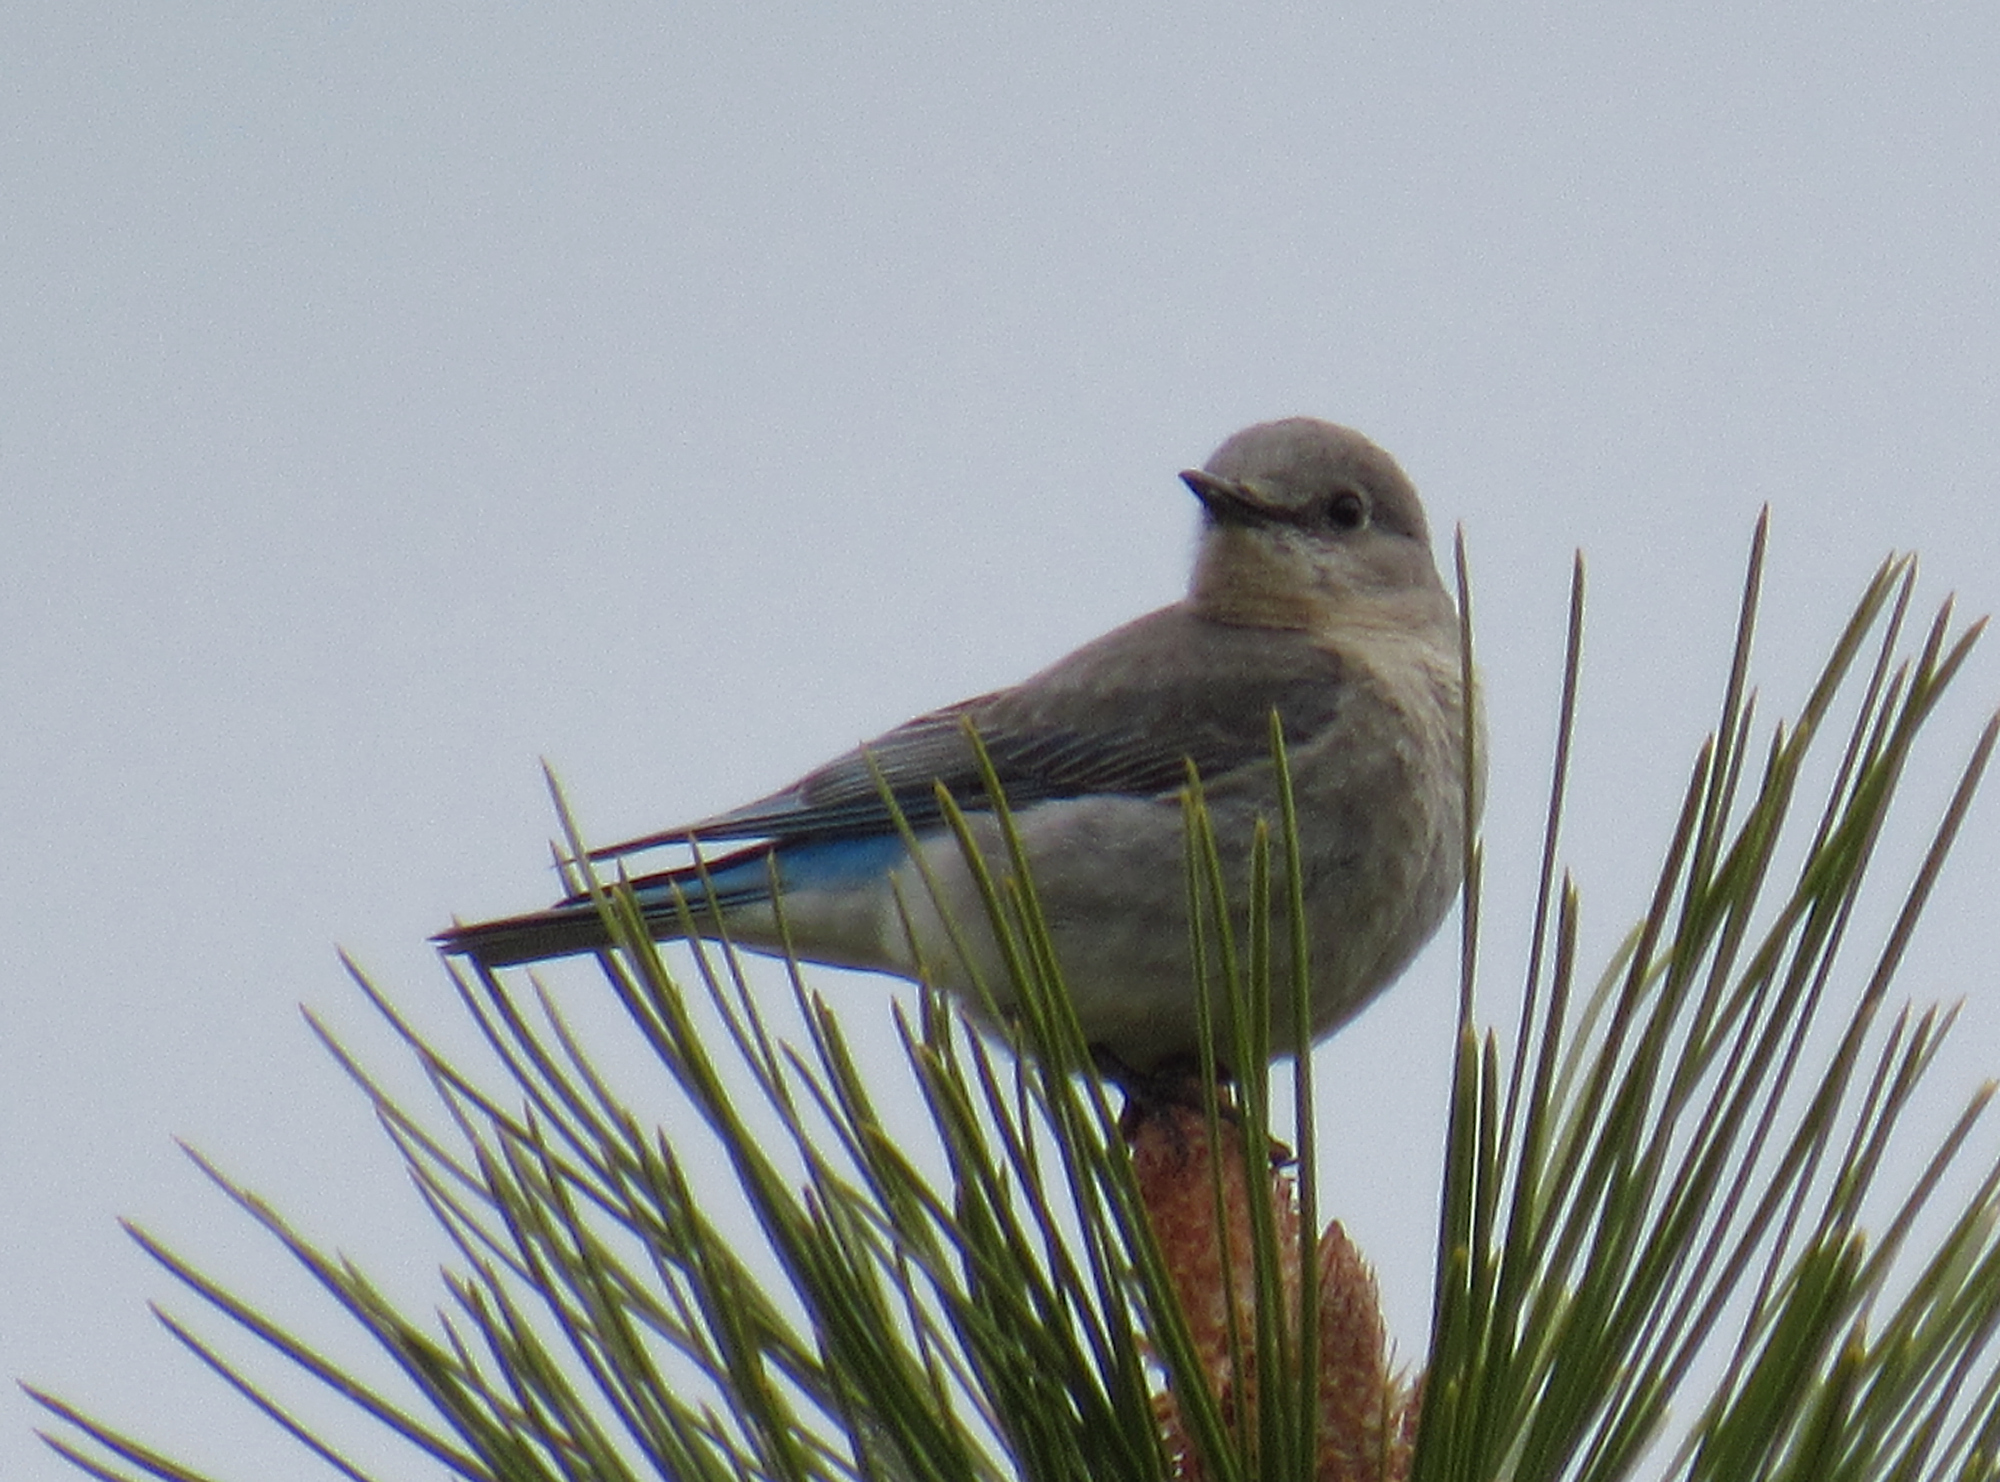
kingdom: Animalia
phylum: Chordata
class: Aves
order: Passeriformes
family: Turdidae
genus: Sialia
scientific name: Sialia currucoides
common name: Mountain bluebird
